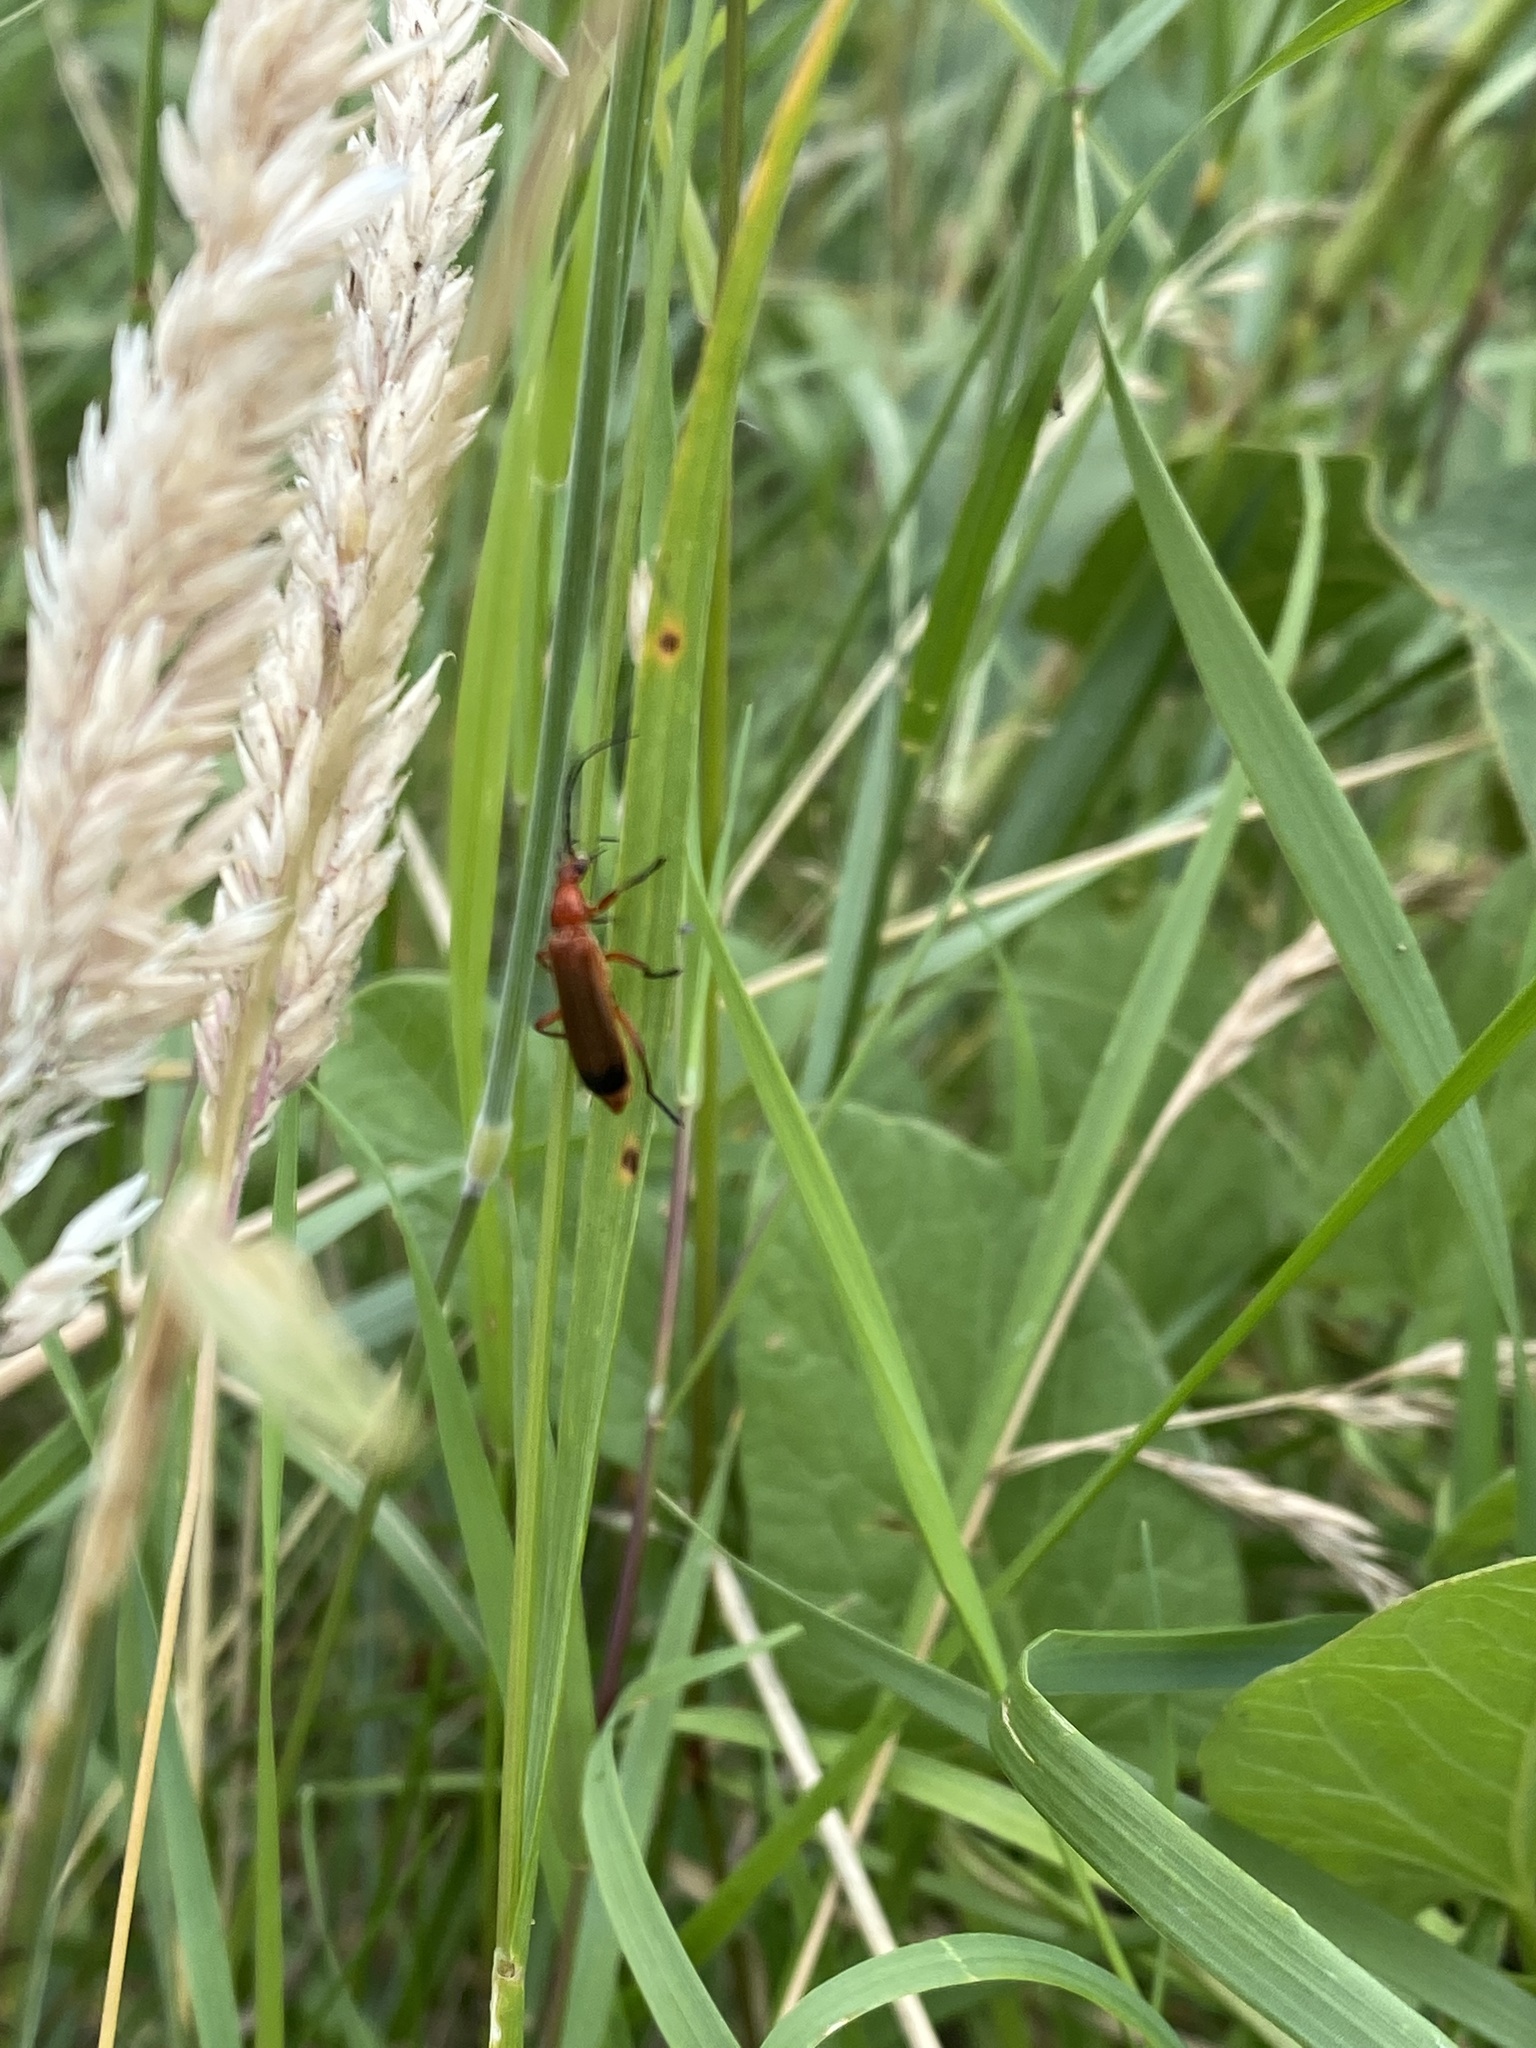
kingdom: Animalia
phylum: Arthropoda
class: Insecta
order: Coleoptera
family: Cantharidae
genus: Rhagonycha
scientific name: Rhagonycha fulva
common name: Common red soldier beetle
